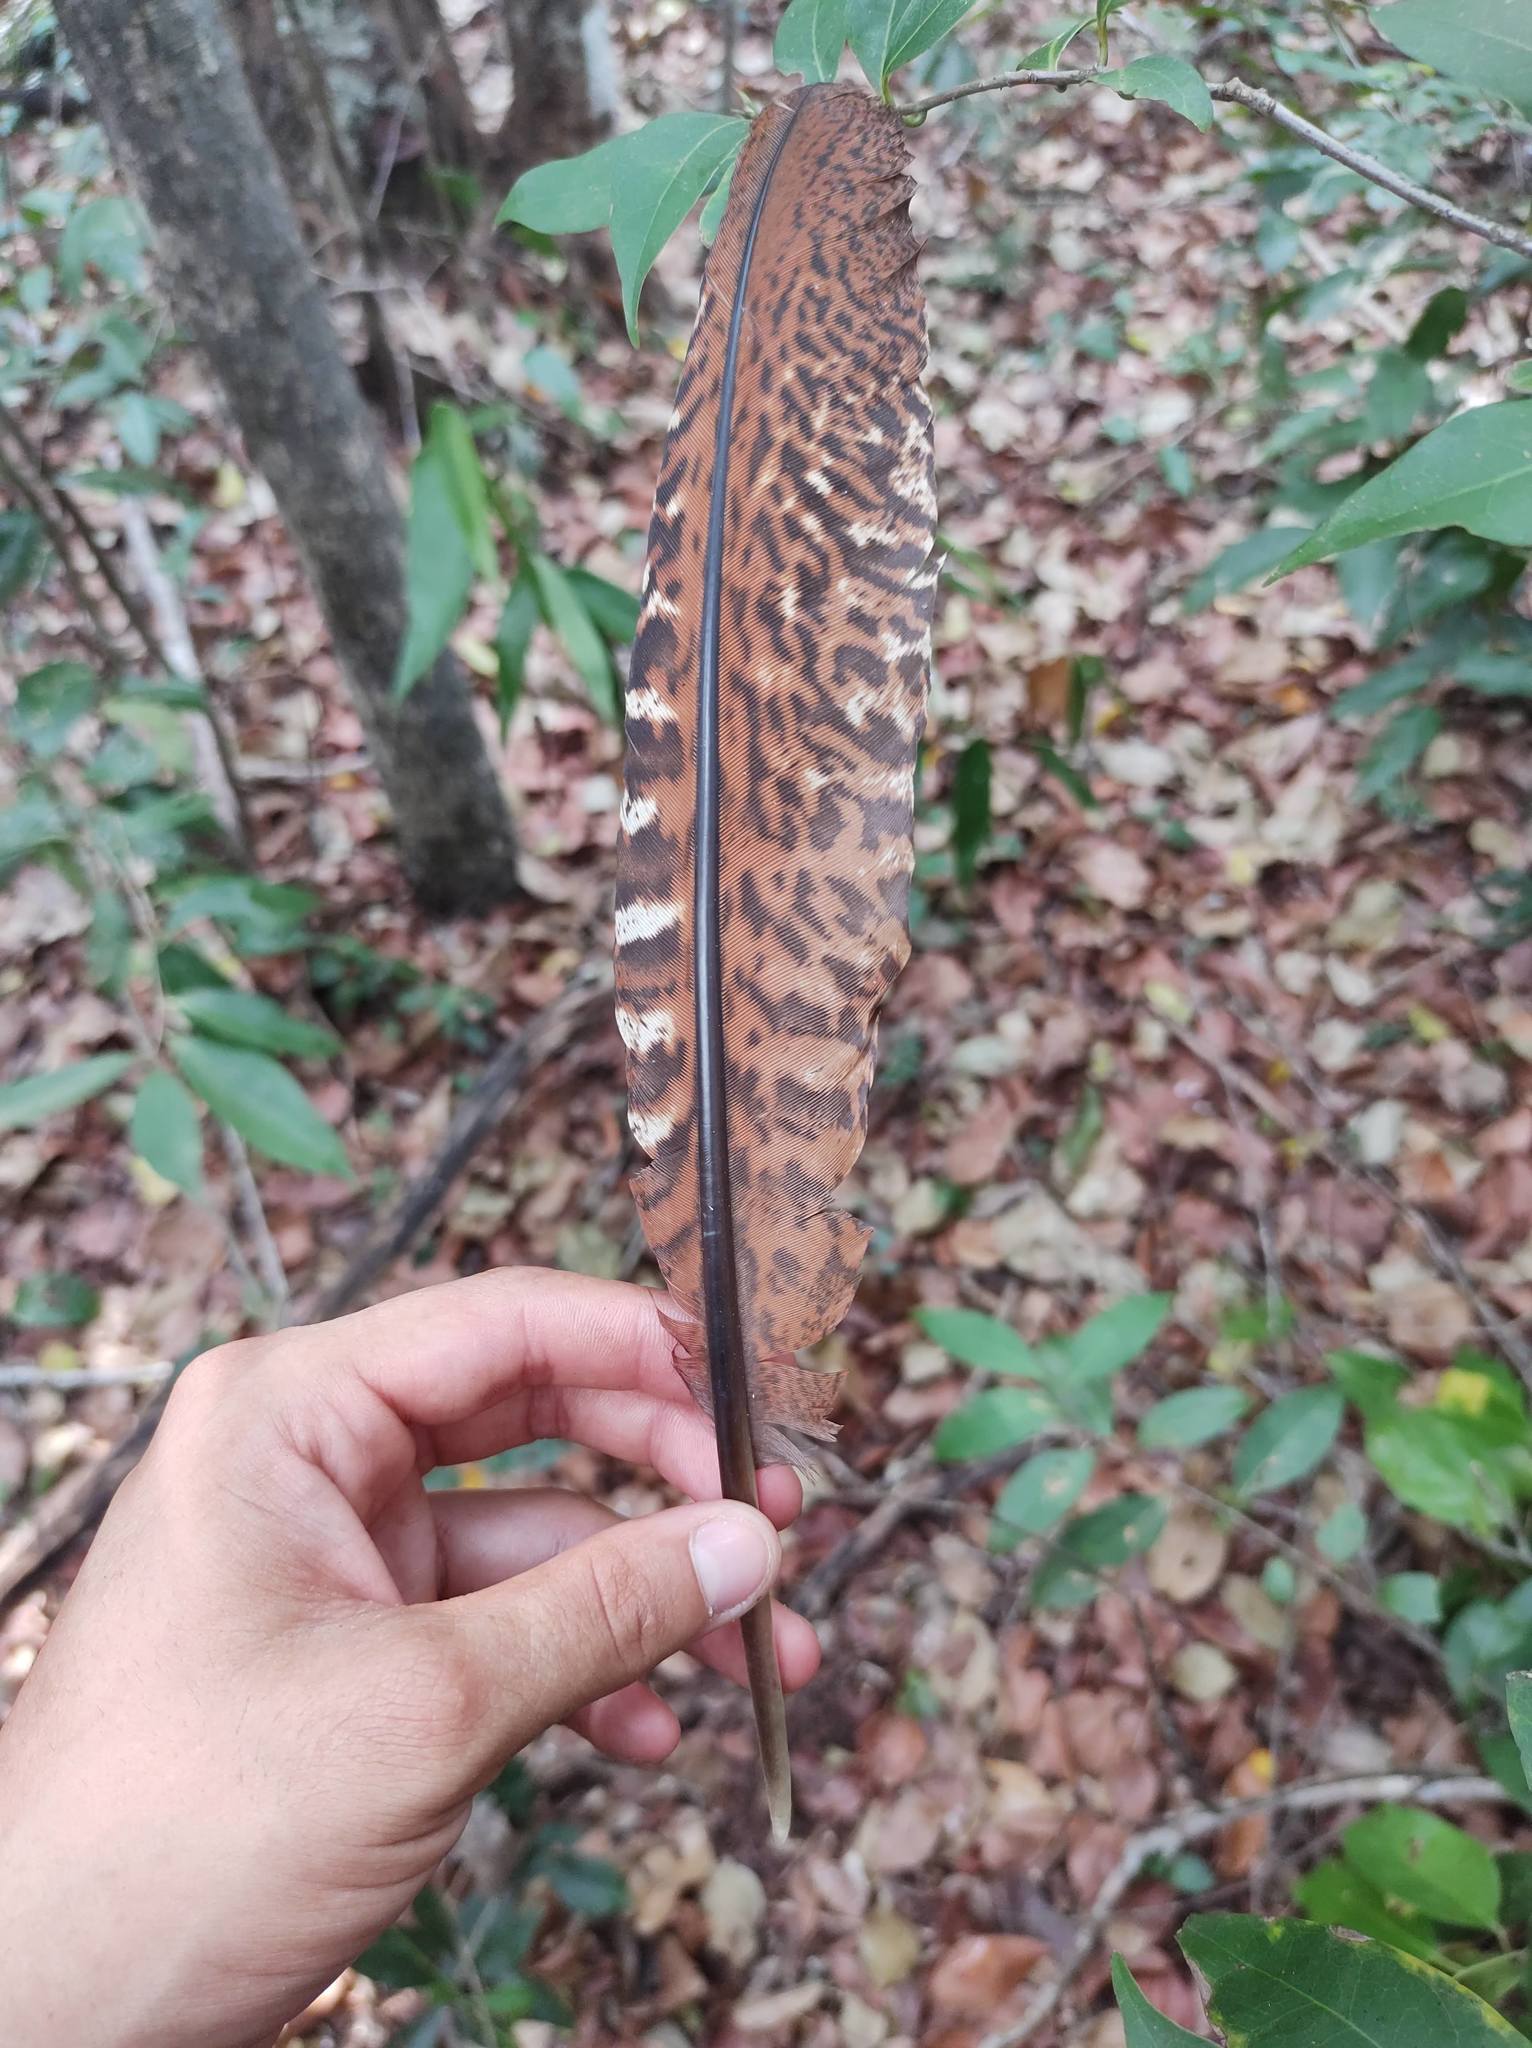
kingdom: Animalia
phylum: Chordata
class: Aves
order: Galliformes
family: Cracidae
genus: Crax
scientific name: Crax rubra
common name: Great curassow
